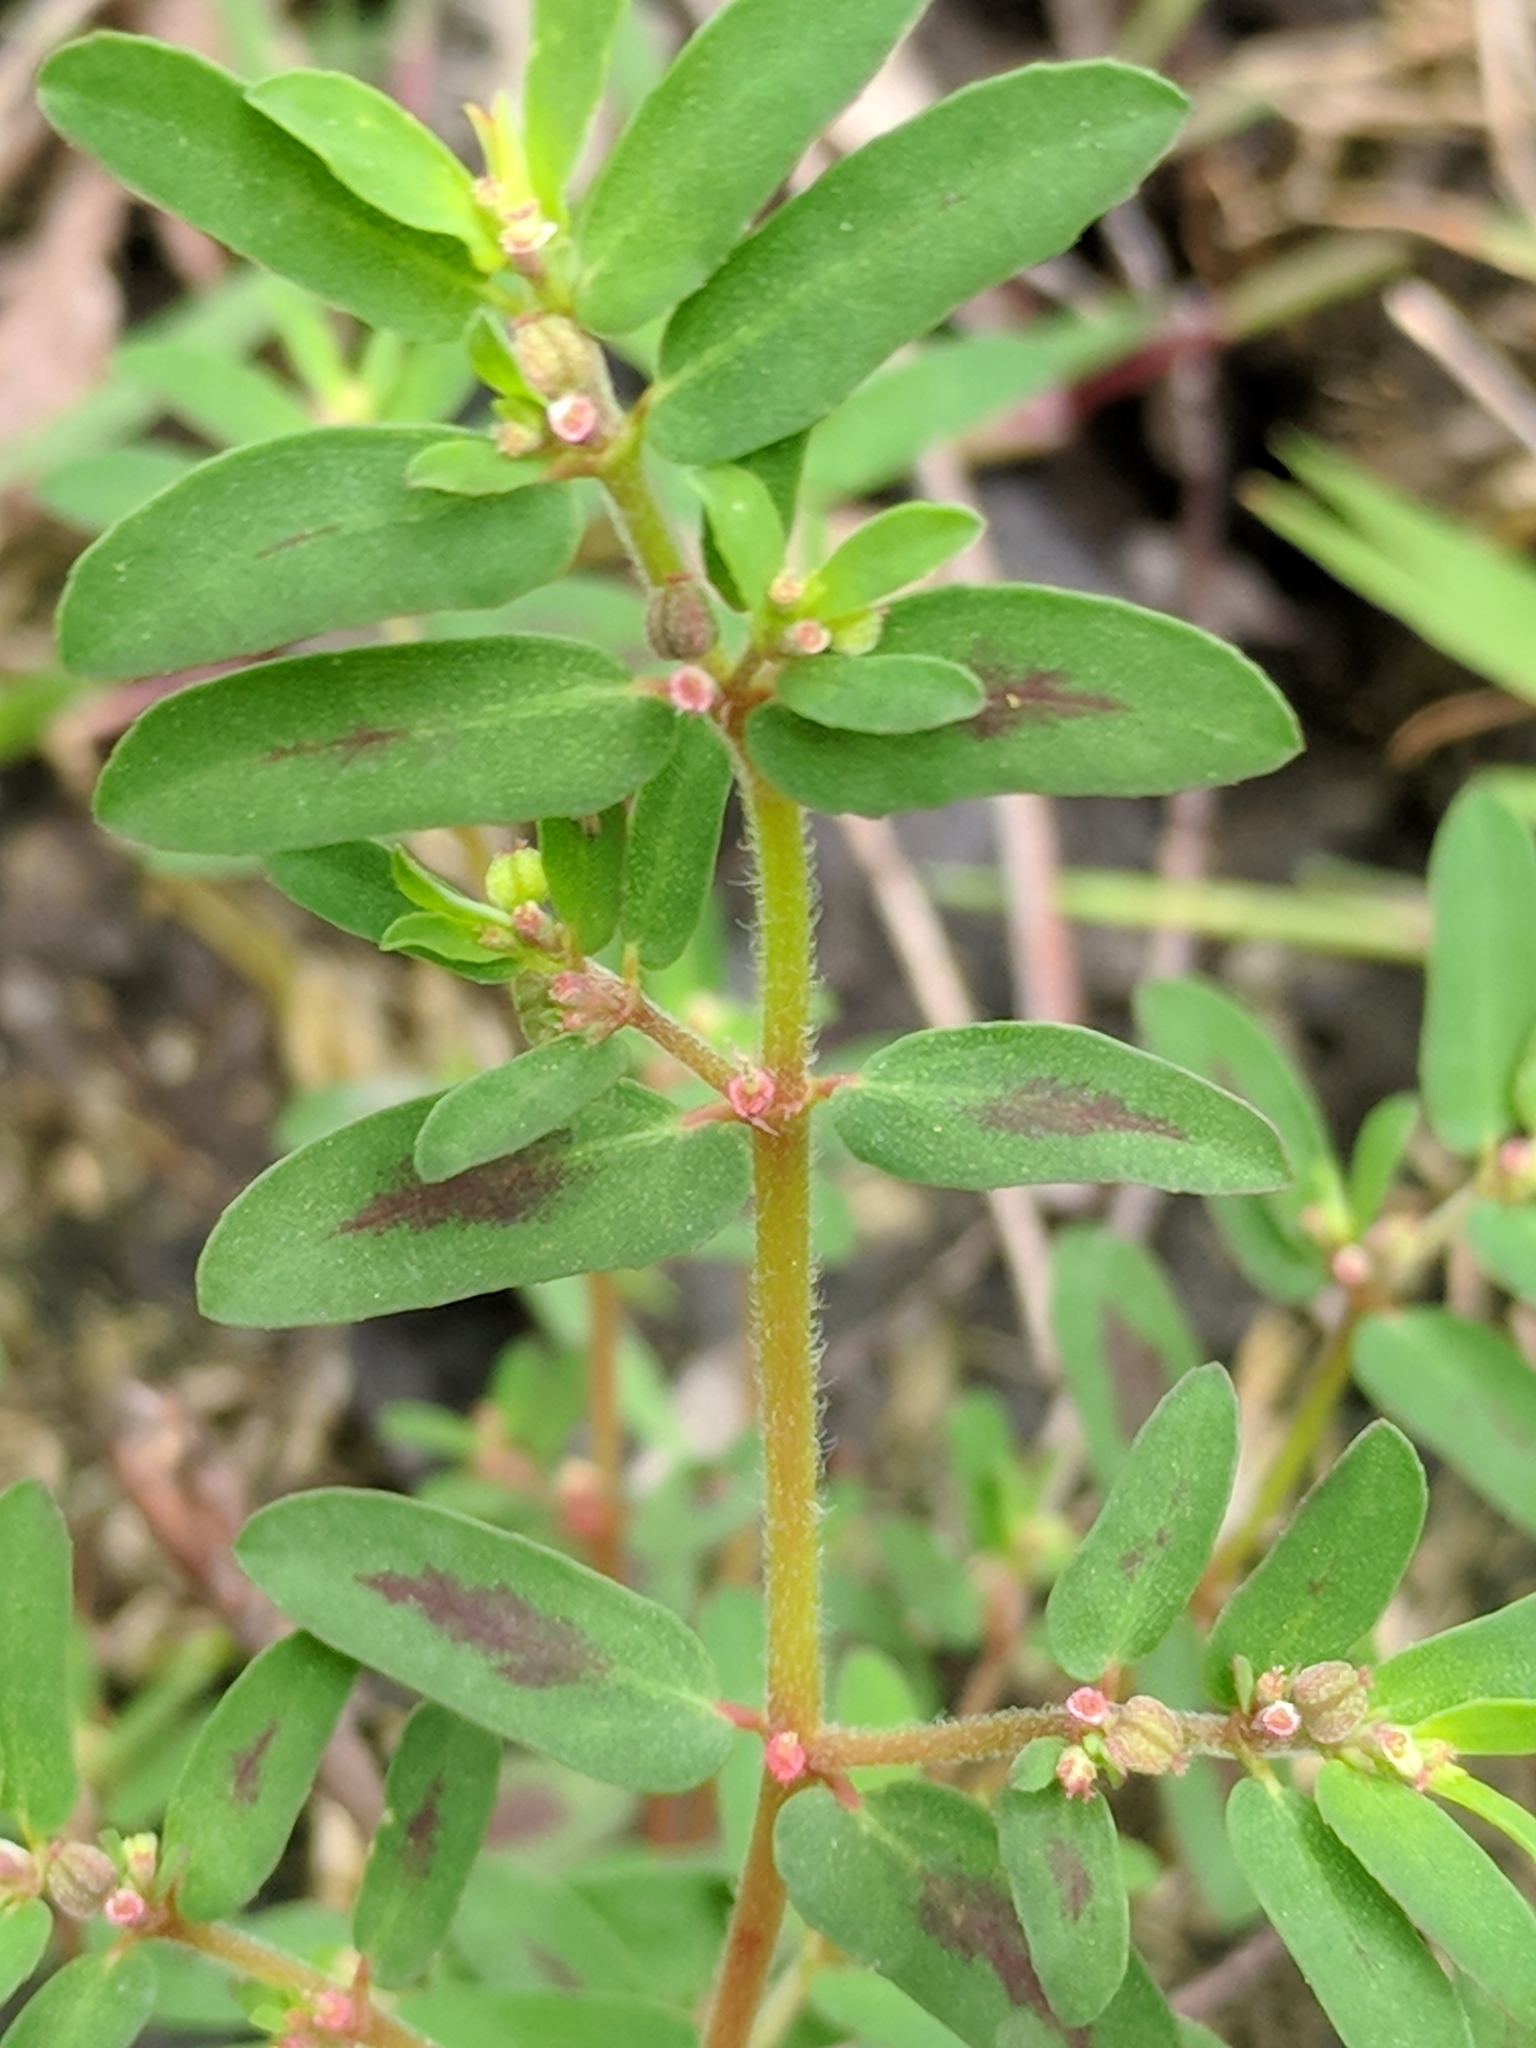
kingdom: Plantae
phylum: Tracheophyta
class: Magnoliopsida
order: Malpighiales
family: Euphorbiaceae
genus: Euphorbia
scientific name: Euphorbia maculata
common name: Spotted spurge
